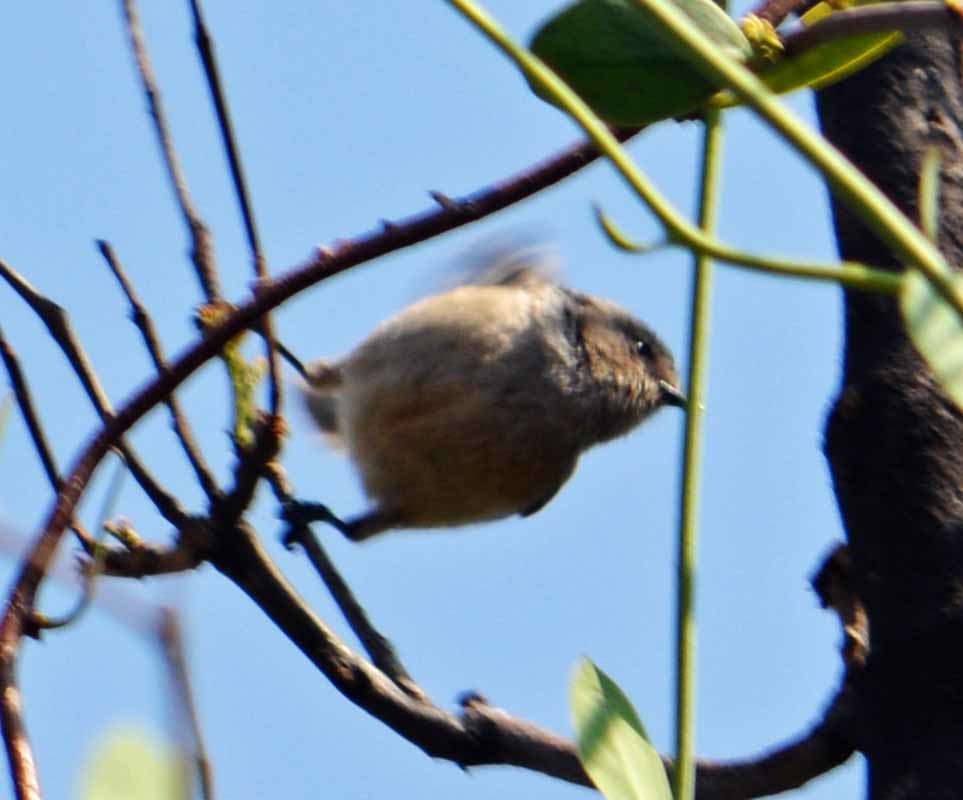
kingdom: Animalia
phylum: Chordata
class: Aves
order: Passeriformes
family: Aegithalidae
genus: Psaltriparus
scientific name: Psaltriparus minimus
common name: American bushtit
